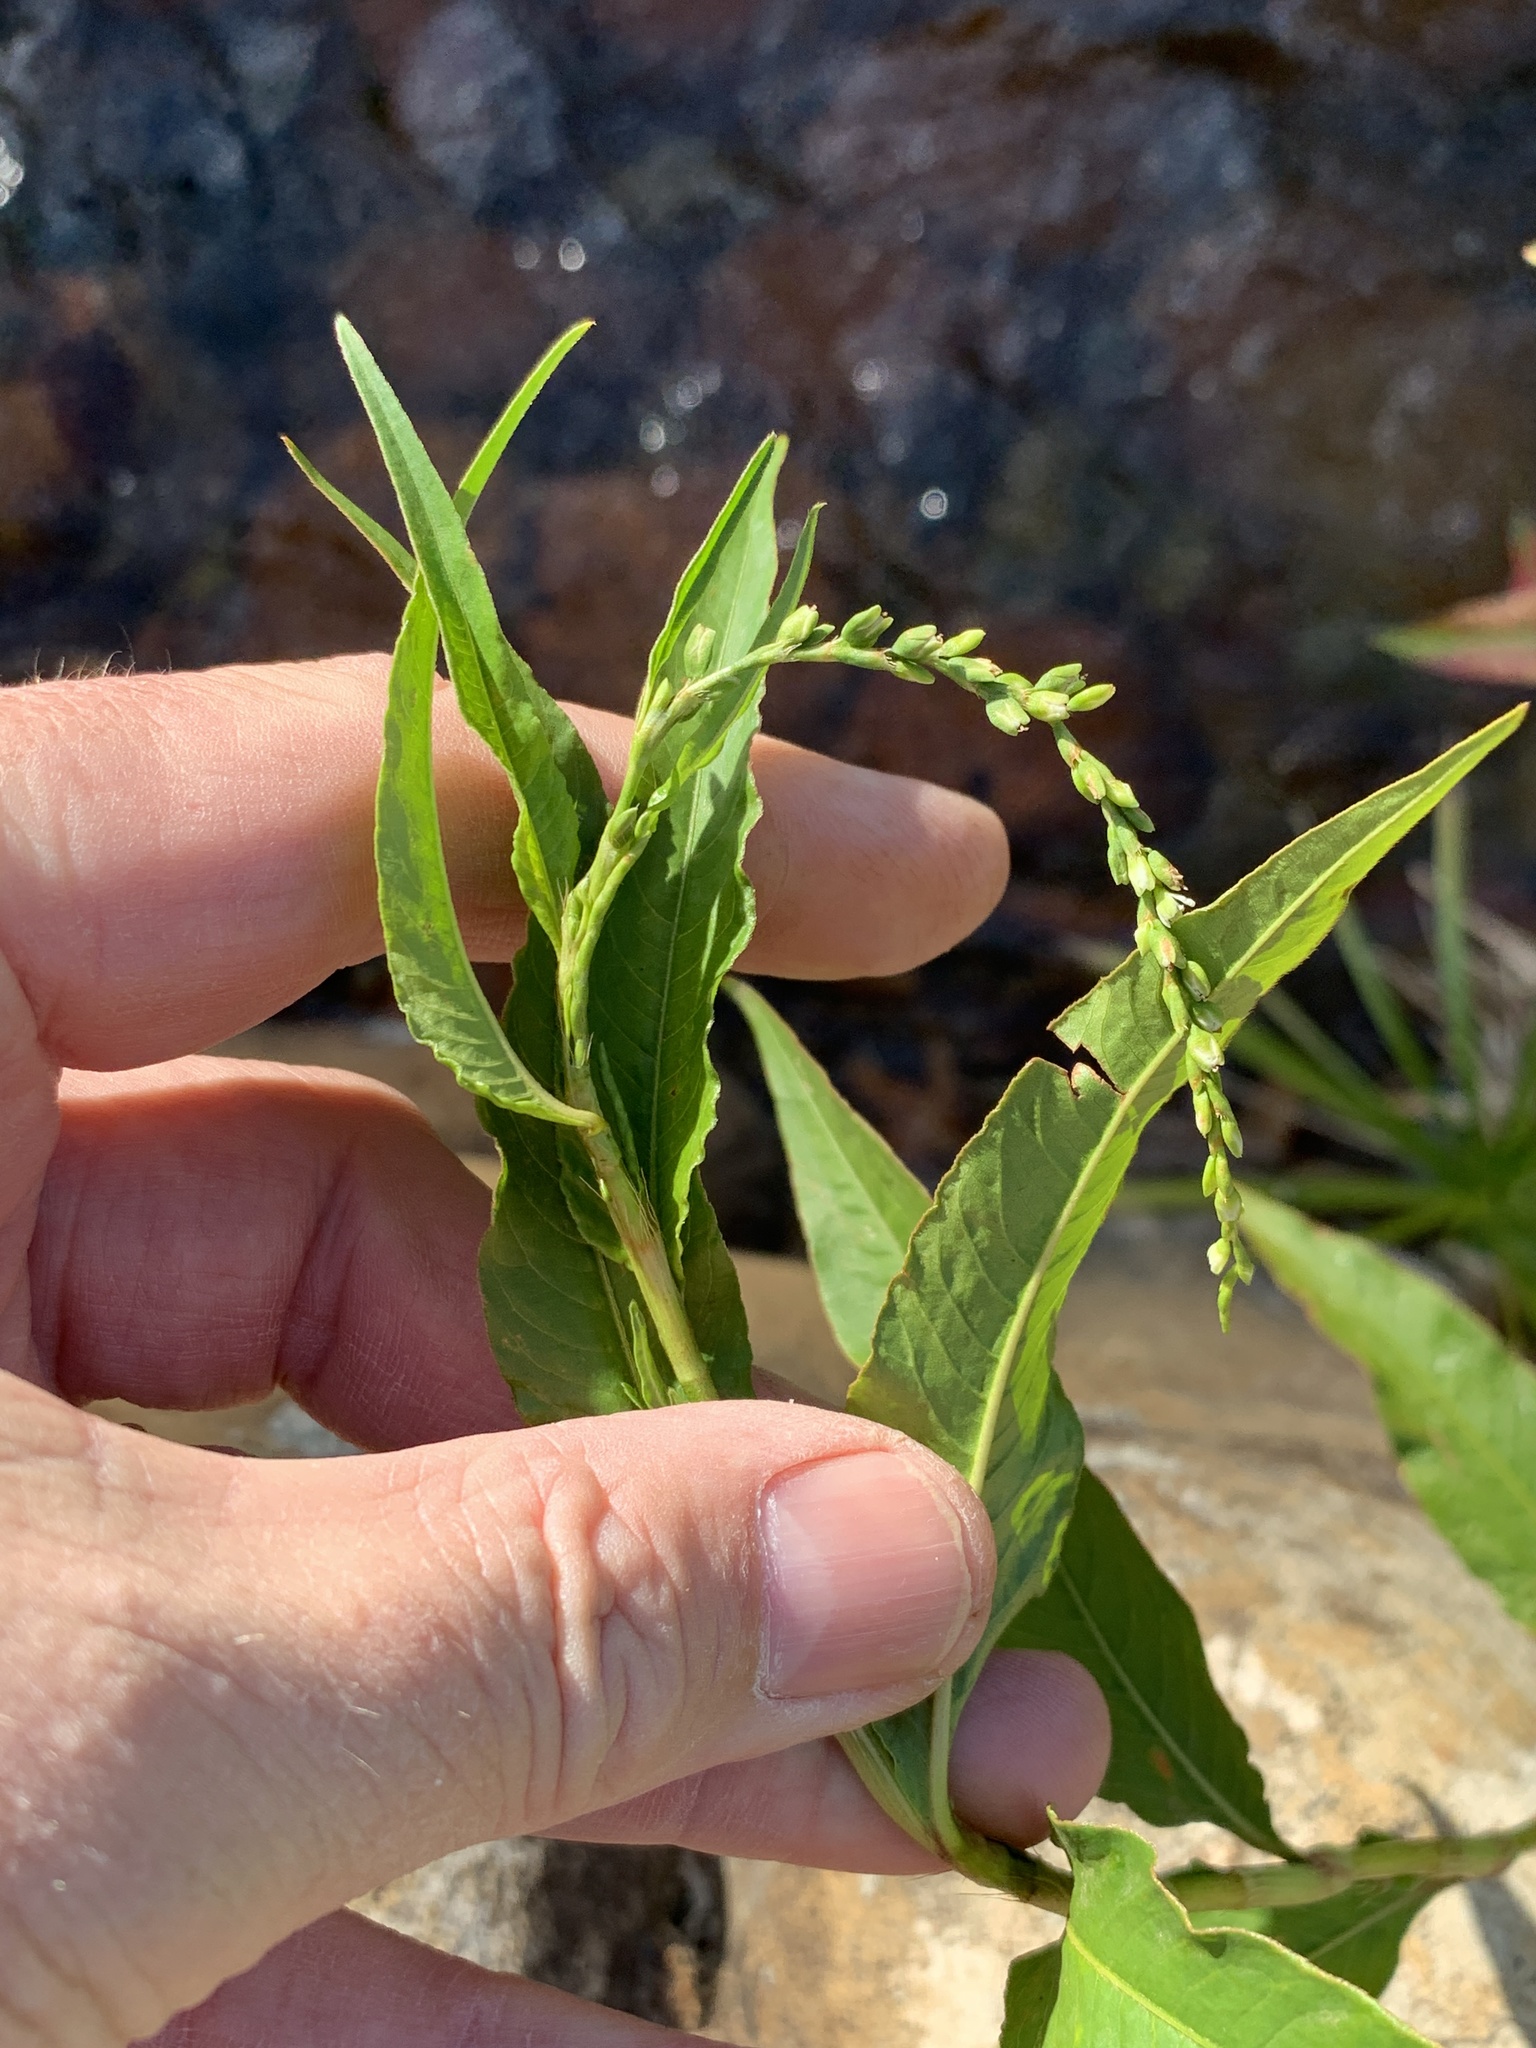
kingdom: Plantae
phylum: Tracheophyta
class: Magnoliopsida
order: Caryophyllales
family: Polygonaceae
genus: Persicaria
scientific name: Persicaria hydropiper
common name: Water-pepper
